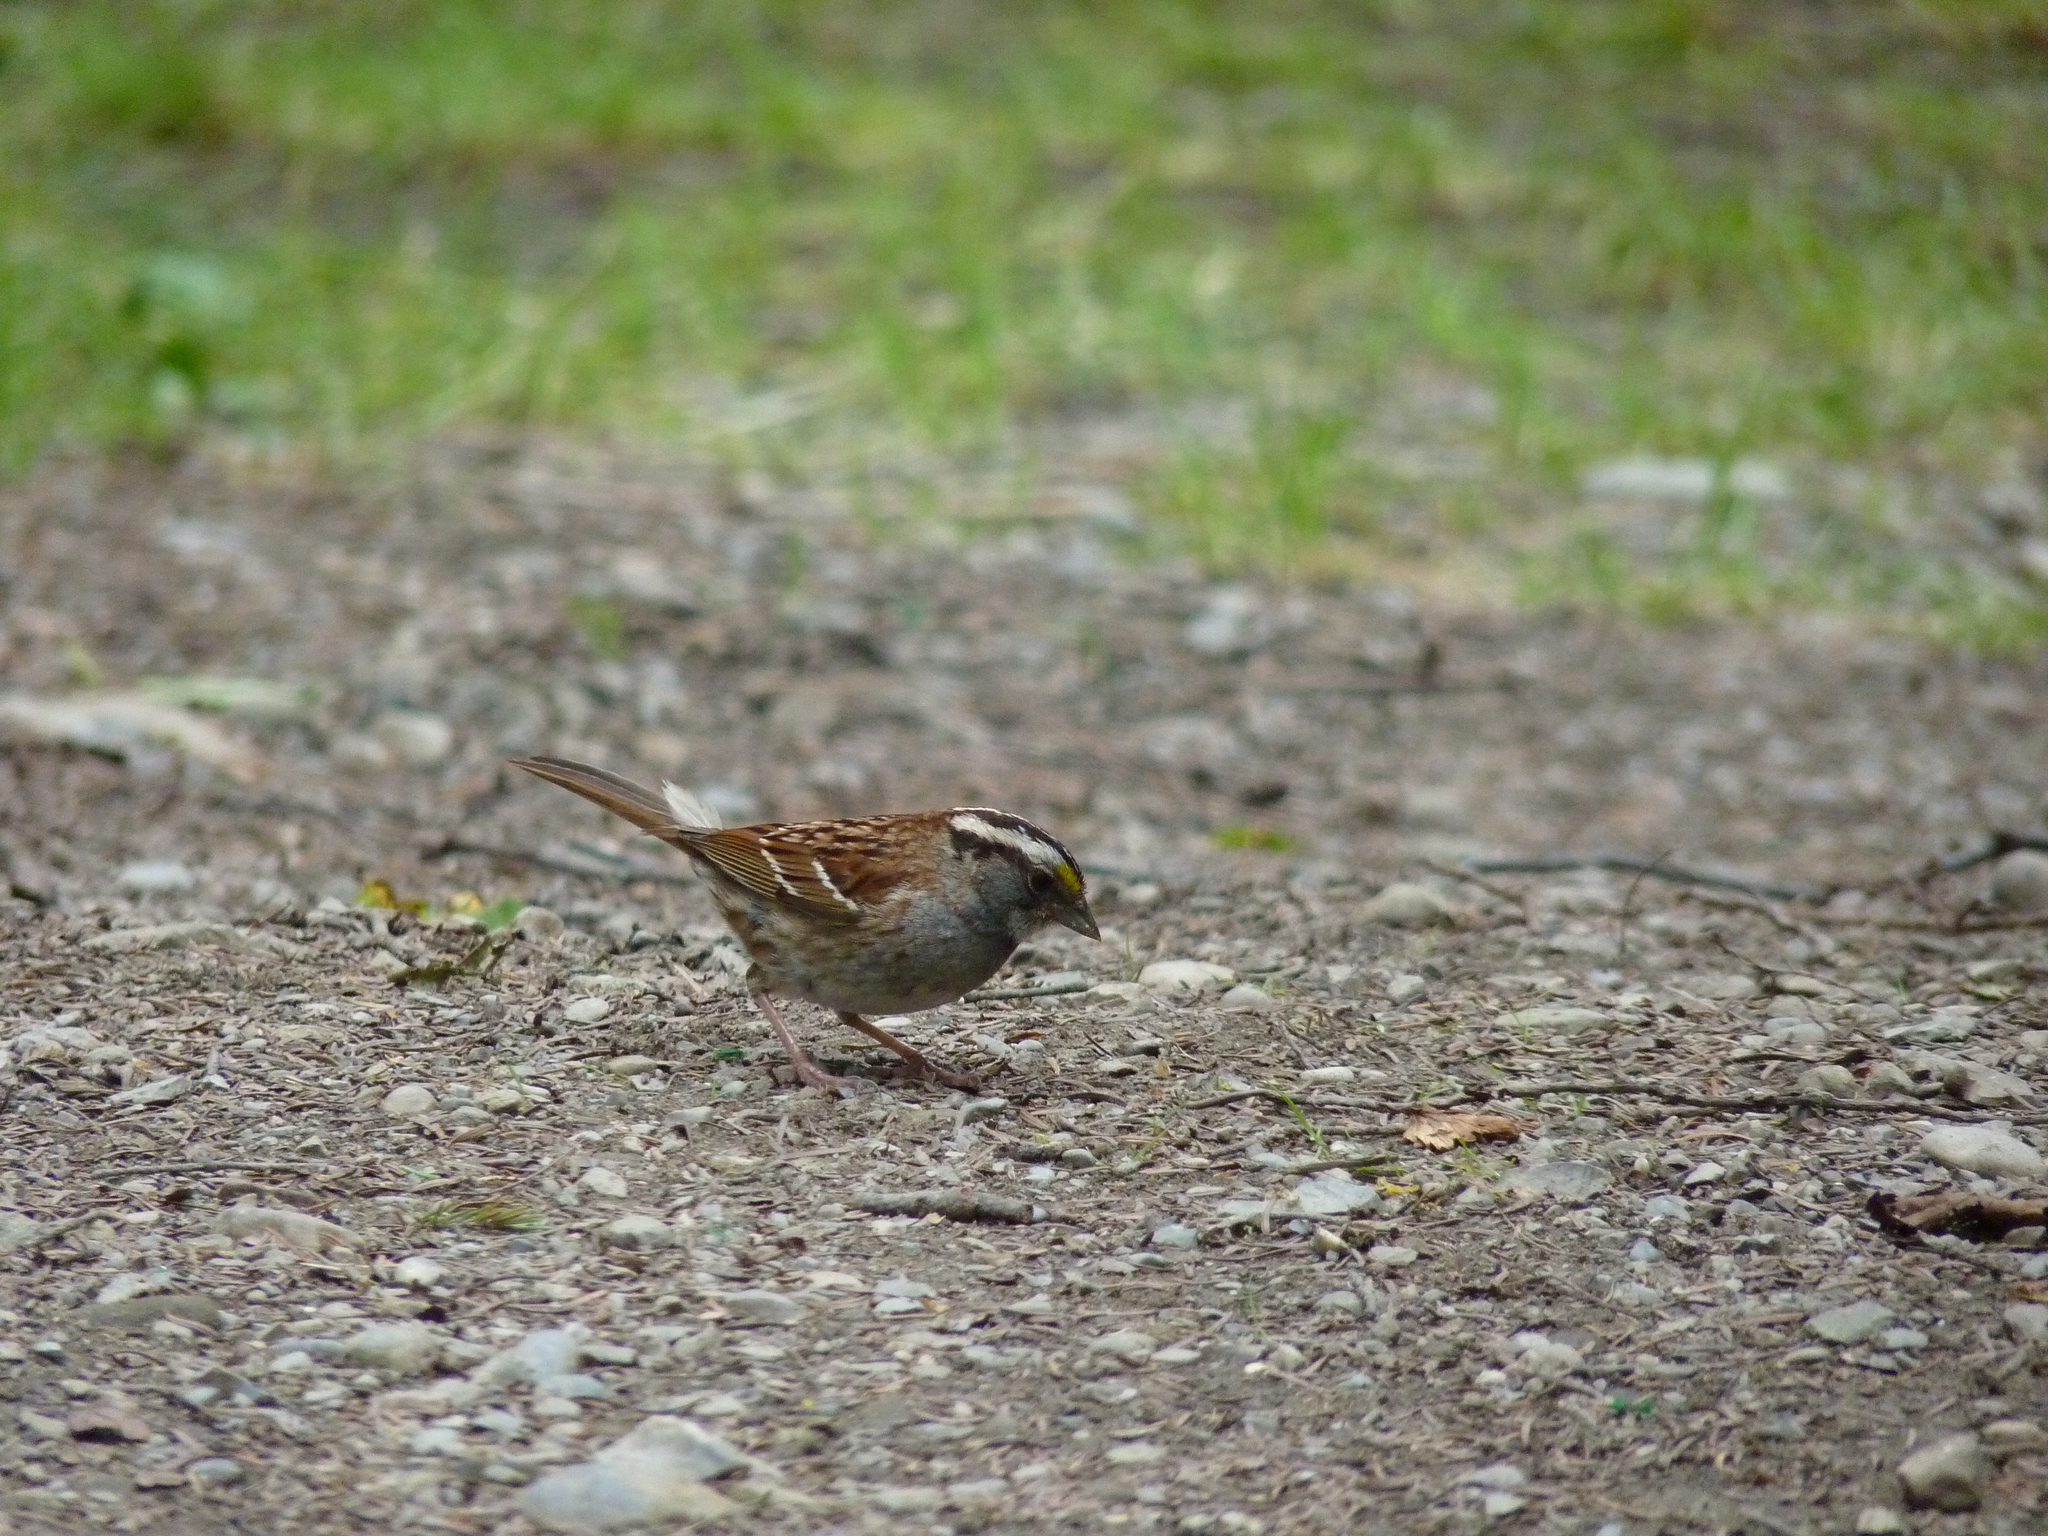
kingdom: Animalia
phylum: Chordata
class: Aves
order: Passeriformes
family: Passerellidae
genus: Zonotrichia
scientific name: Zonotrichia albicollis
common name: White-throated sparrow
